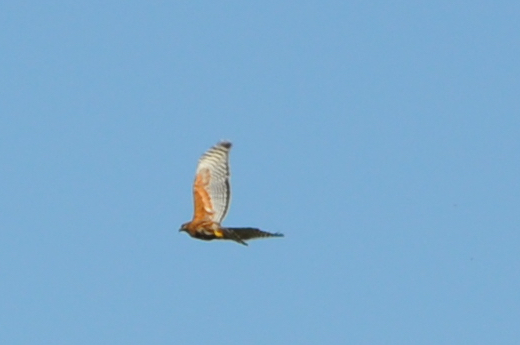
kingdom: Animalia
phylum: Chordata
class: Aves
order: Accipitriformes
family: Accipitridae
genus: Buteo
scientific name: Buteo lineatus
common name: Red-shouldered hawk
